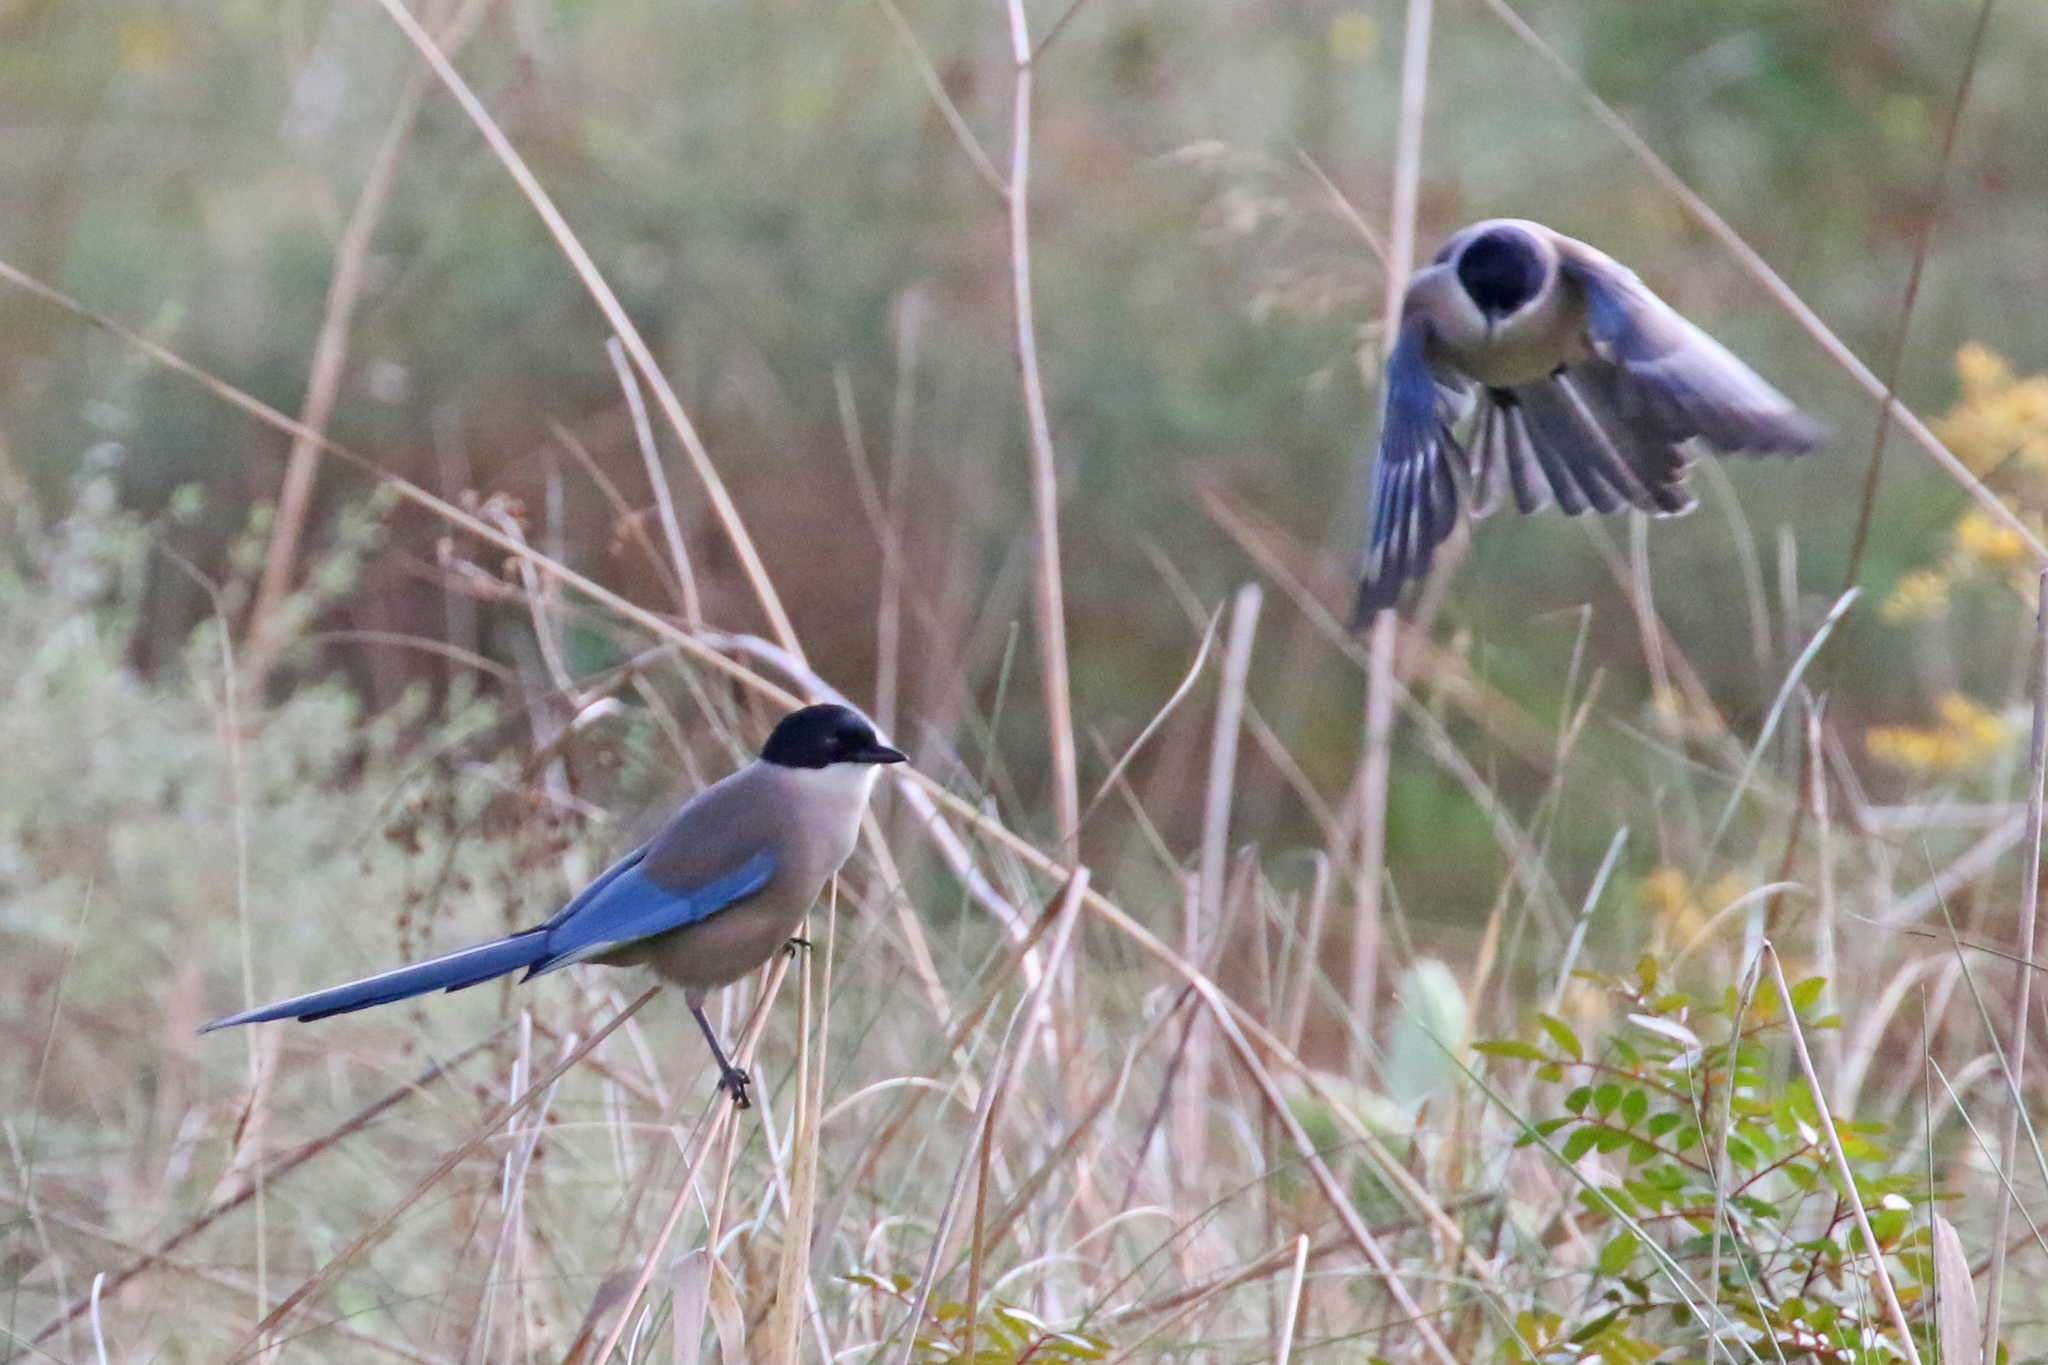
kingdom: Animalia
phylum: Chordata
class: Aves
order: Passeriformes
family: Corvidae
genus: Cyanopica
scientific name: Cyanopica cooki
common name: Iberian magpie
